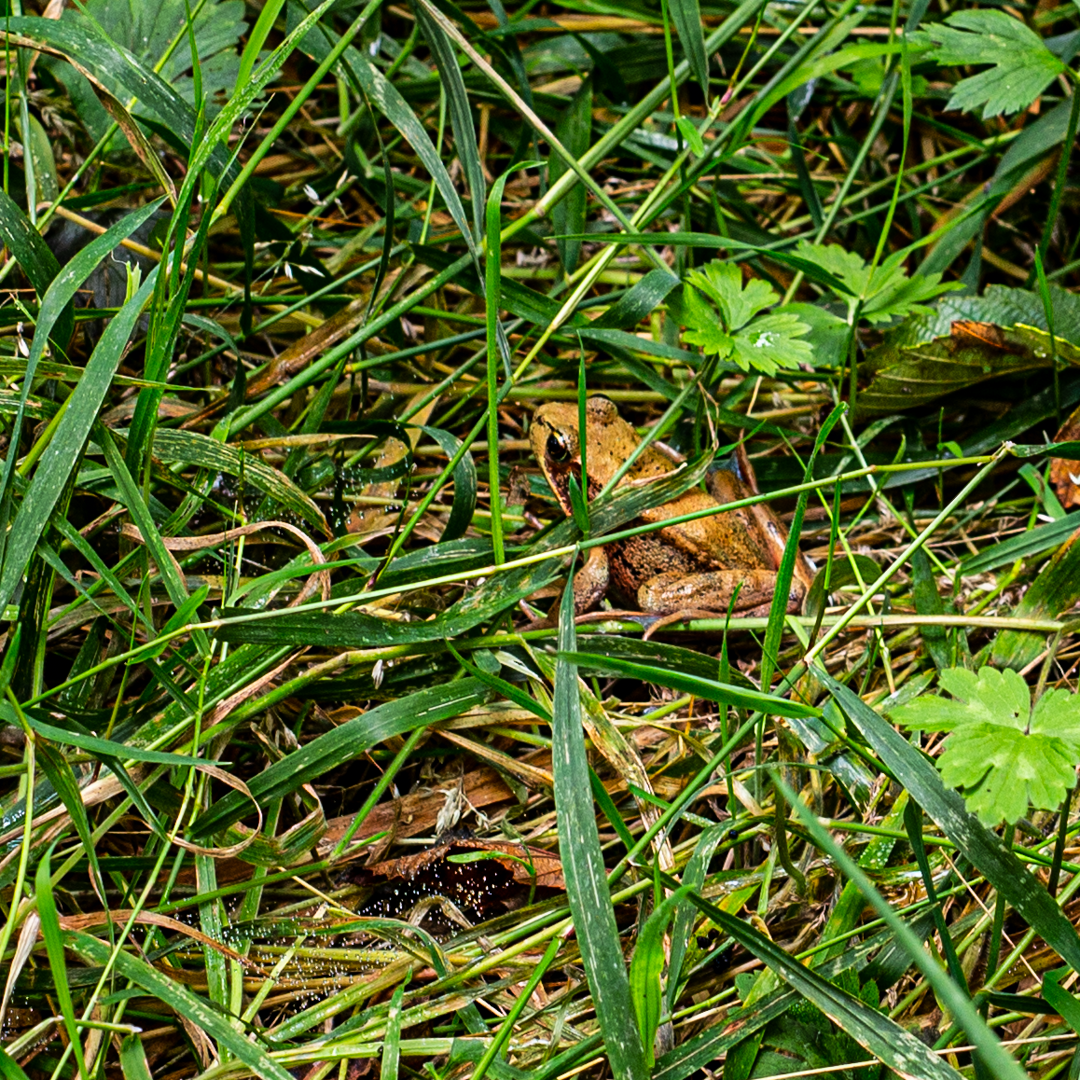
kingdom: Animalia
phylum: Chordata
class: Amphibia
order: Anura
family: Ranidae
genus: Rana
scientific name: Rana aurora
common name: Red-legged frog
